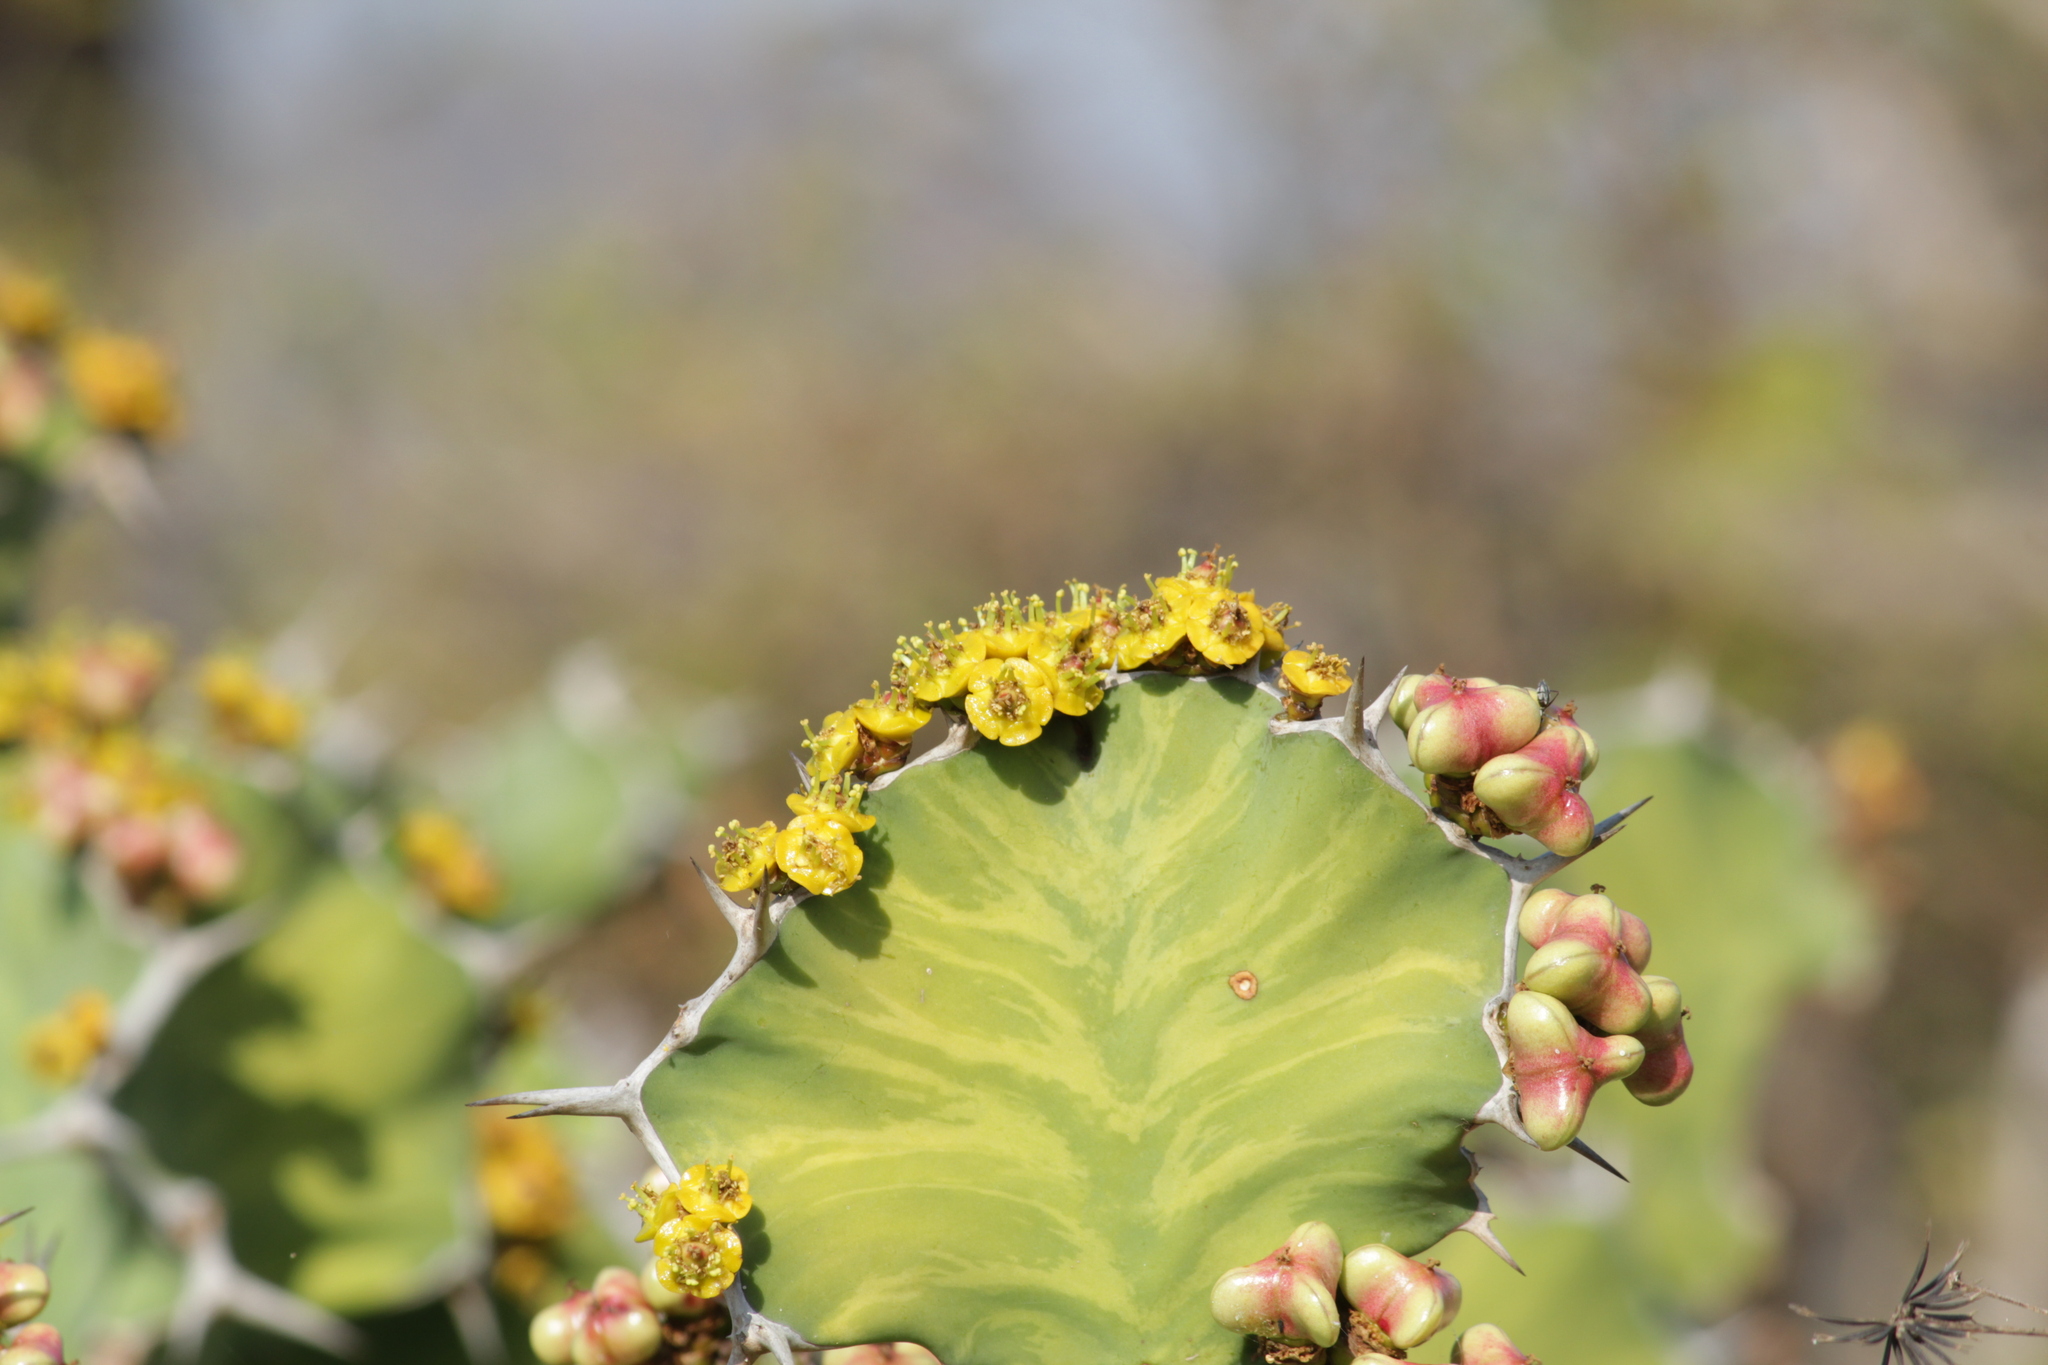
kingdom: Plantae
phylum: Tracheophyta
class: Magnoliopsida
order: Malpighiales
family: Euphorbiaceae
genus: Euphorbia
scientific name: Euphorbia grandicornis
